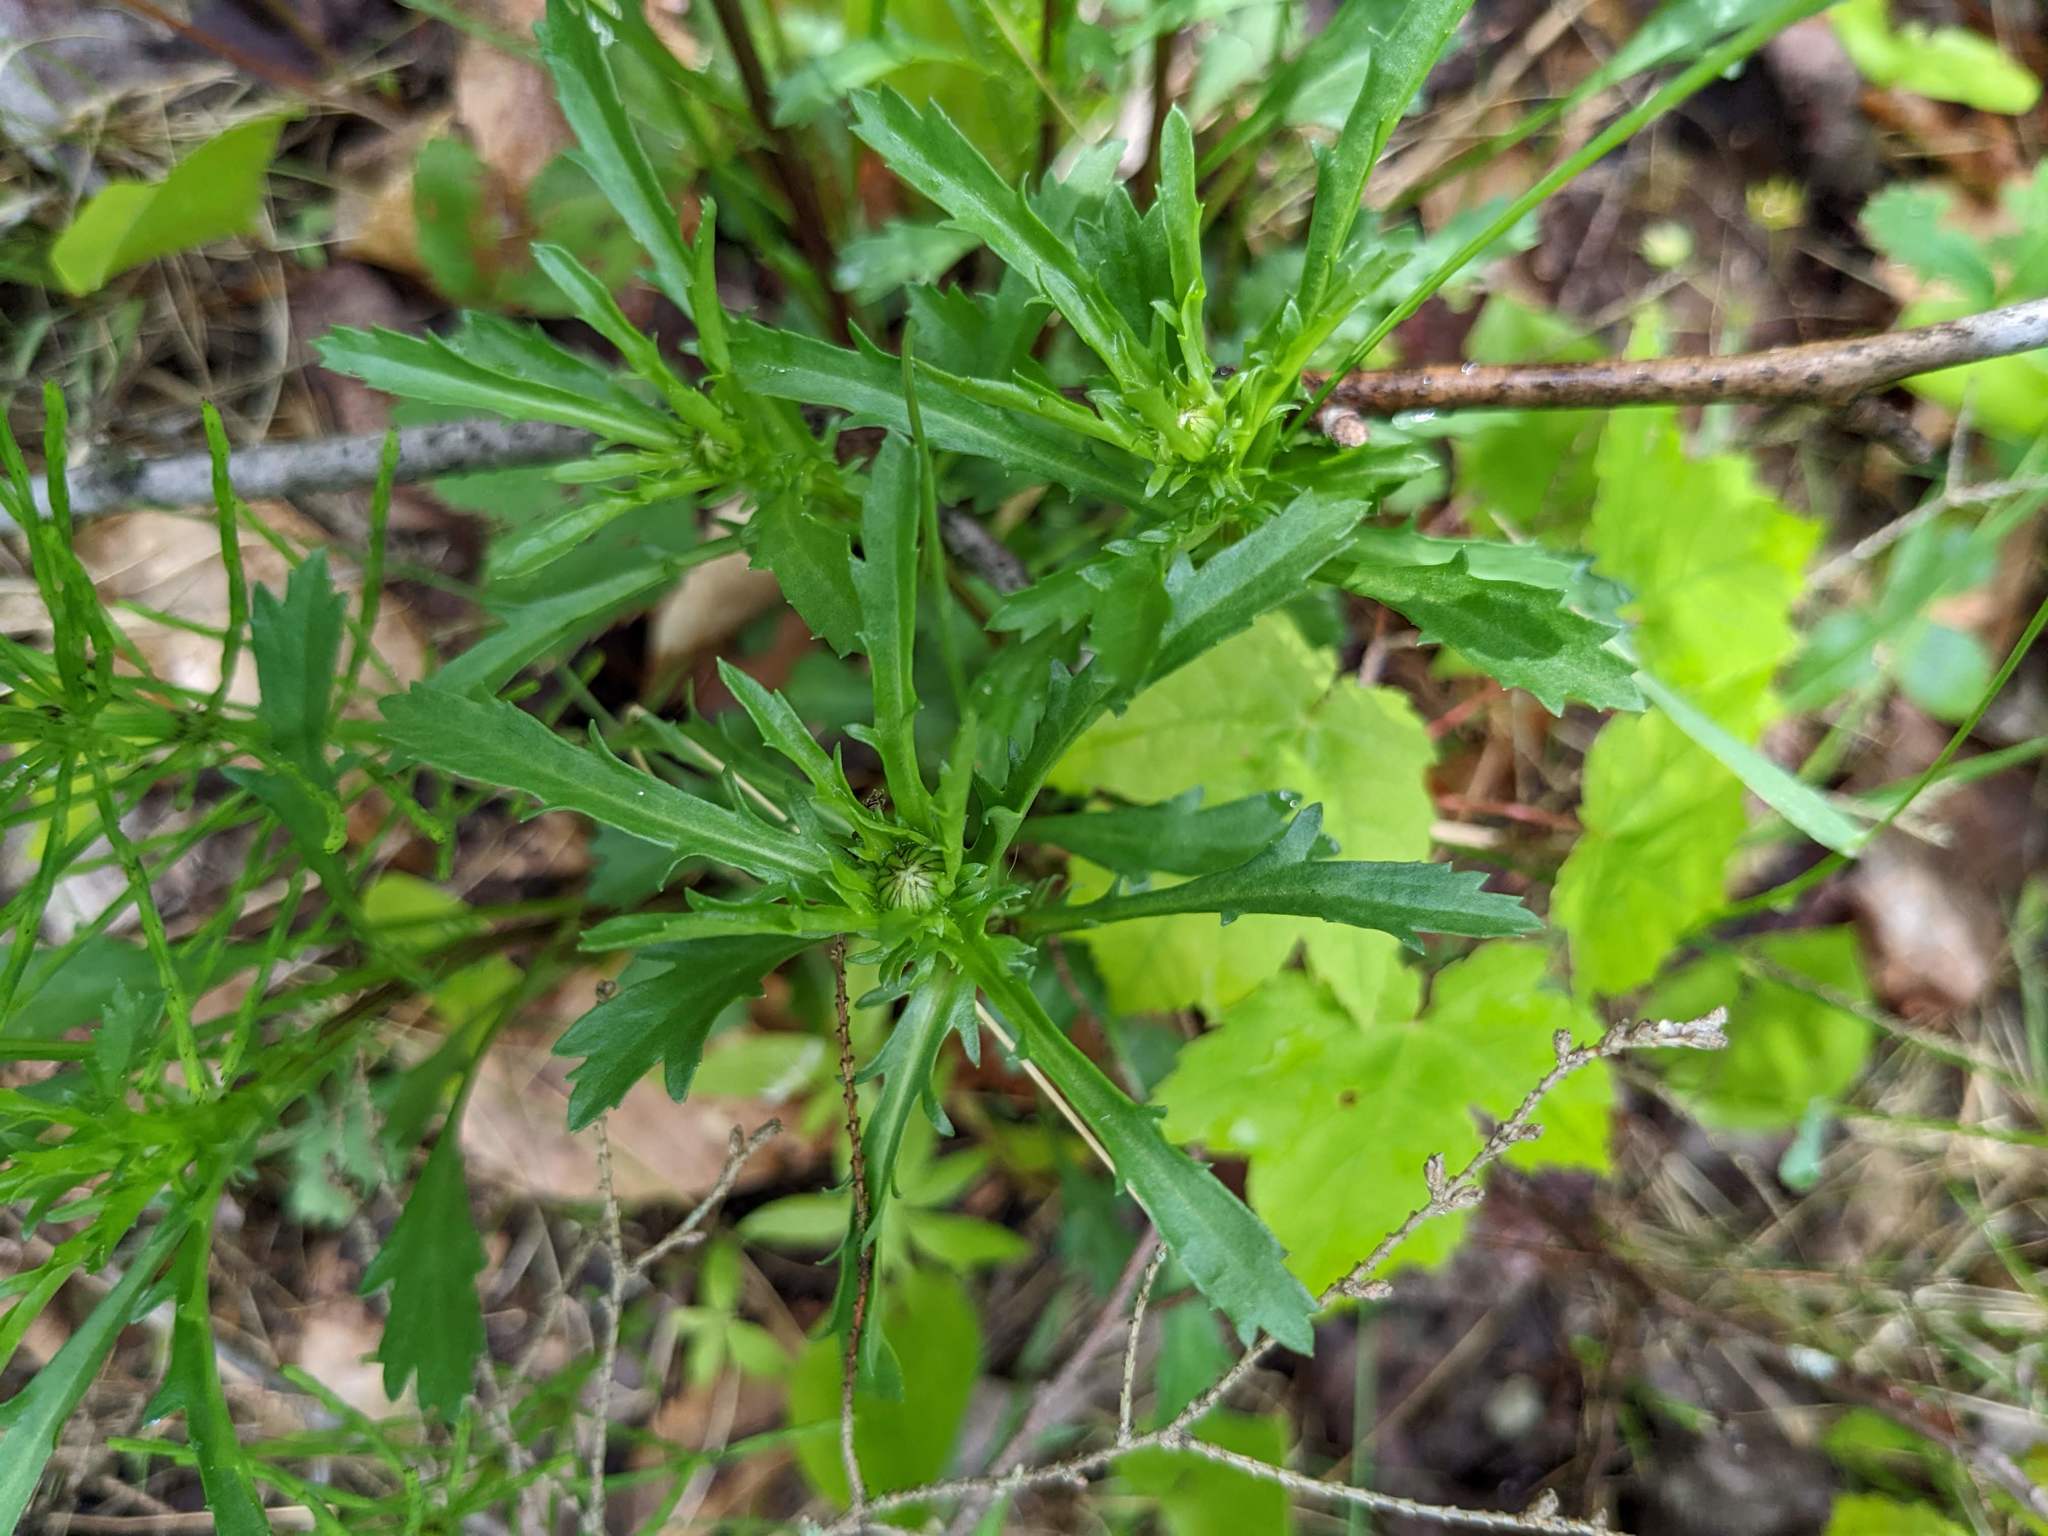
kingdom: Plantae
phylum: Tracheophyta
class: Magnoliopsida
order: Asterales
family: Asteraceae
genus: Leucanthemum
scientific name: Leucanthemum vulgare
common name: Oxeye daisy
